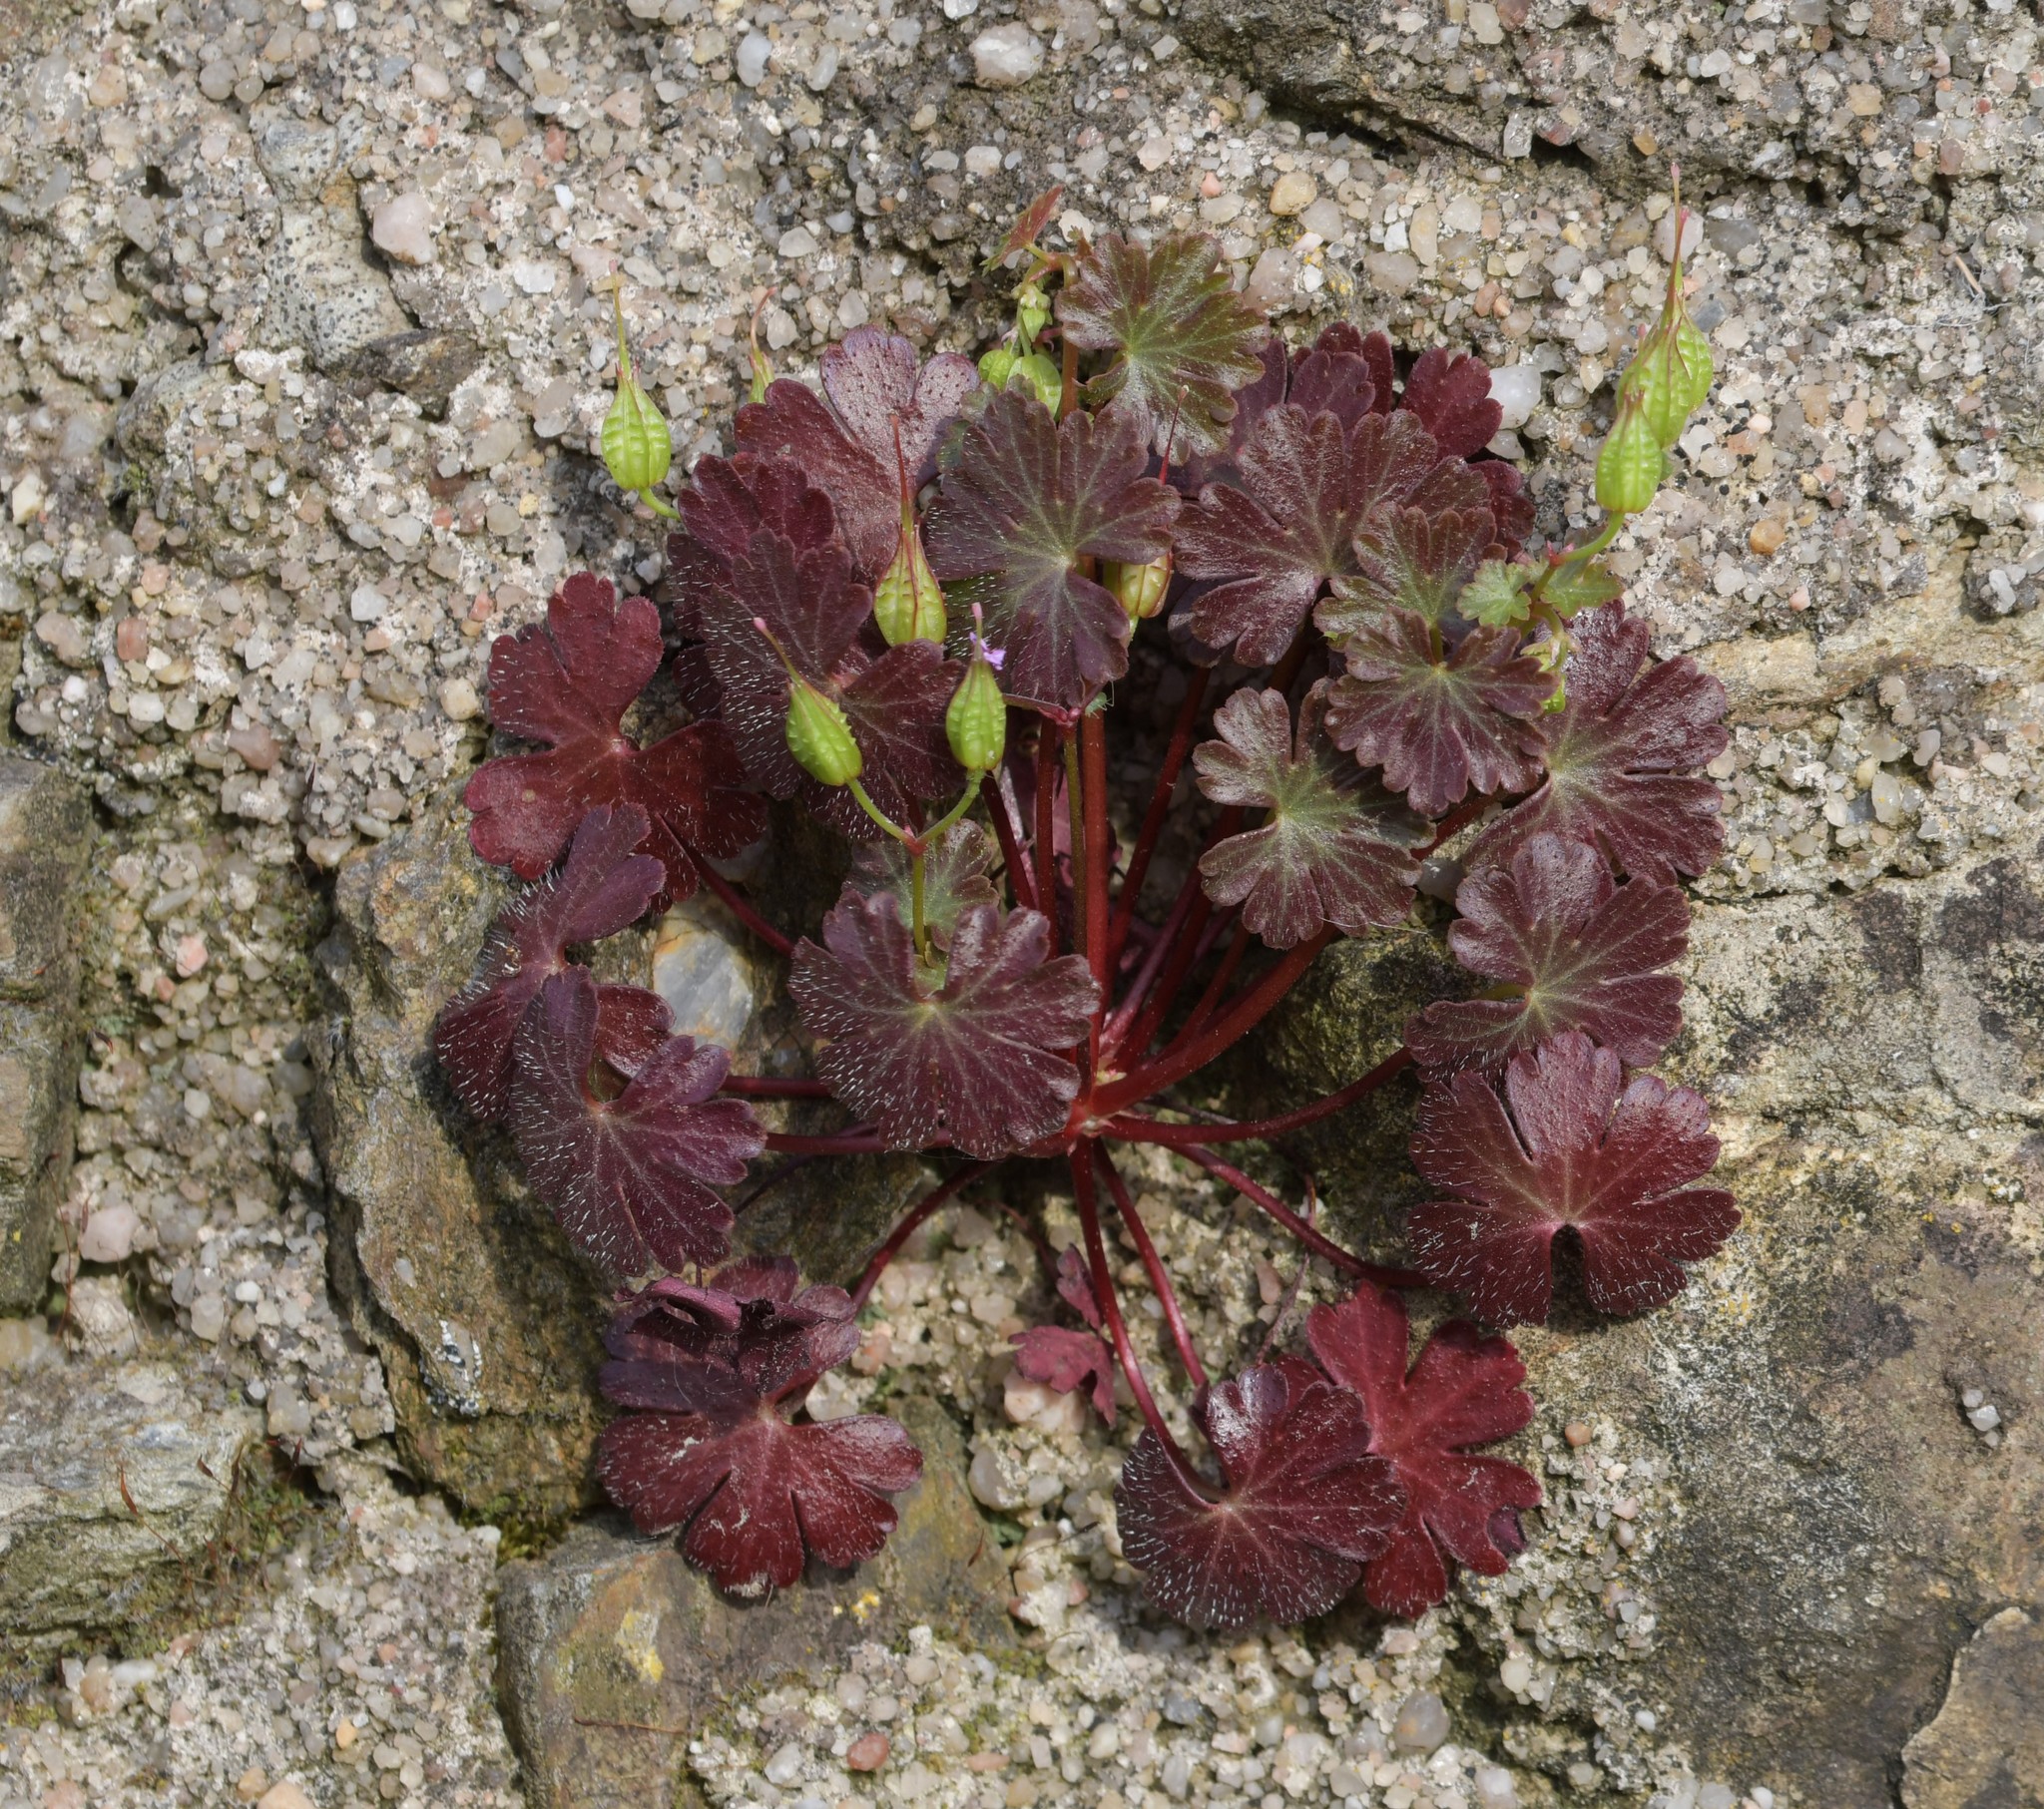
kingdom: Plantae
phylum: Tracheophyta
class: Magnoliopsida
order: Geraniales
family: Geraniaceae
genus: Geranium
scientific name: Geranium lucidum
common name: Shining crane's-bill
